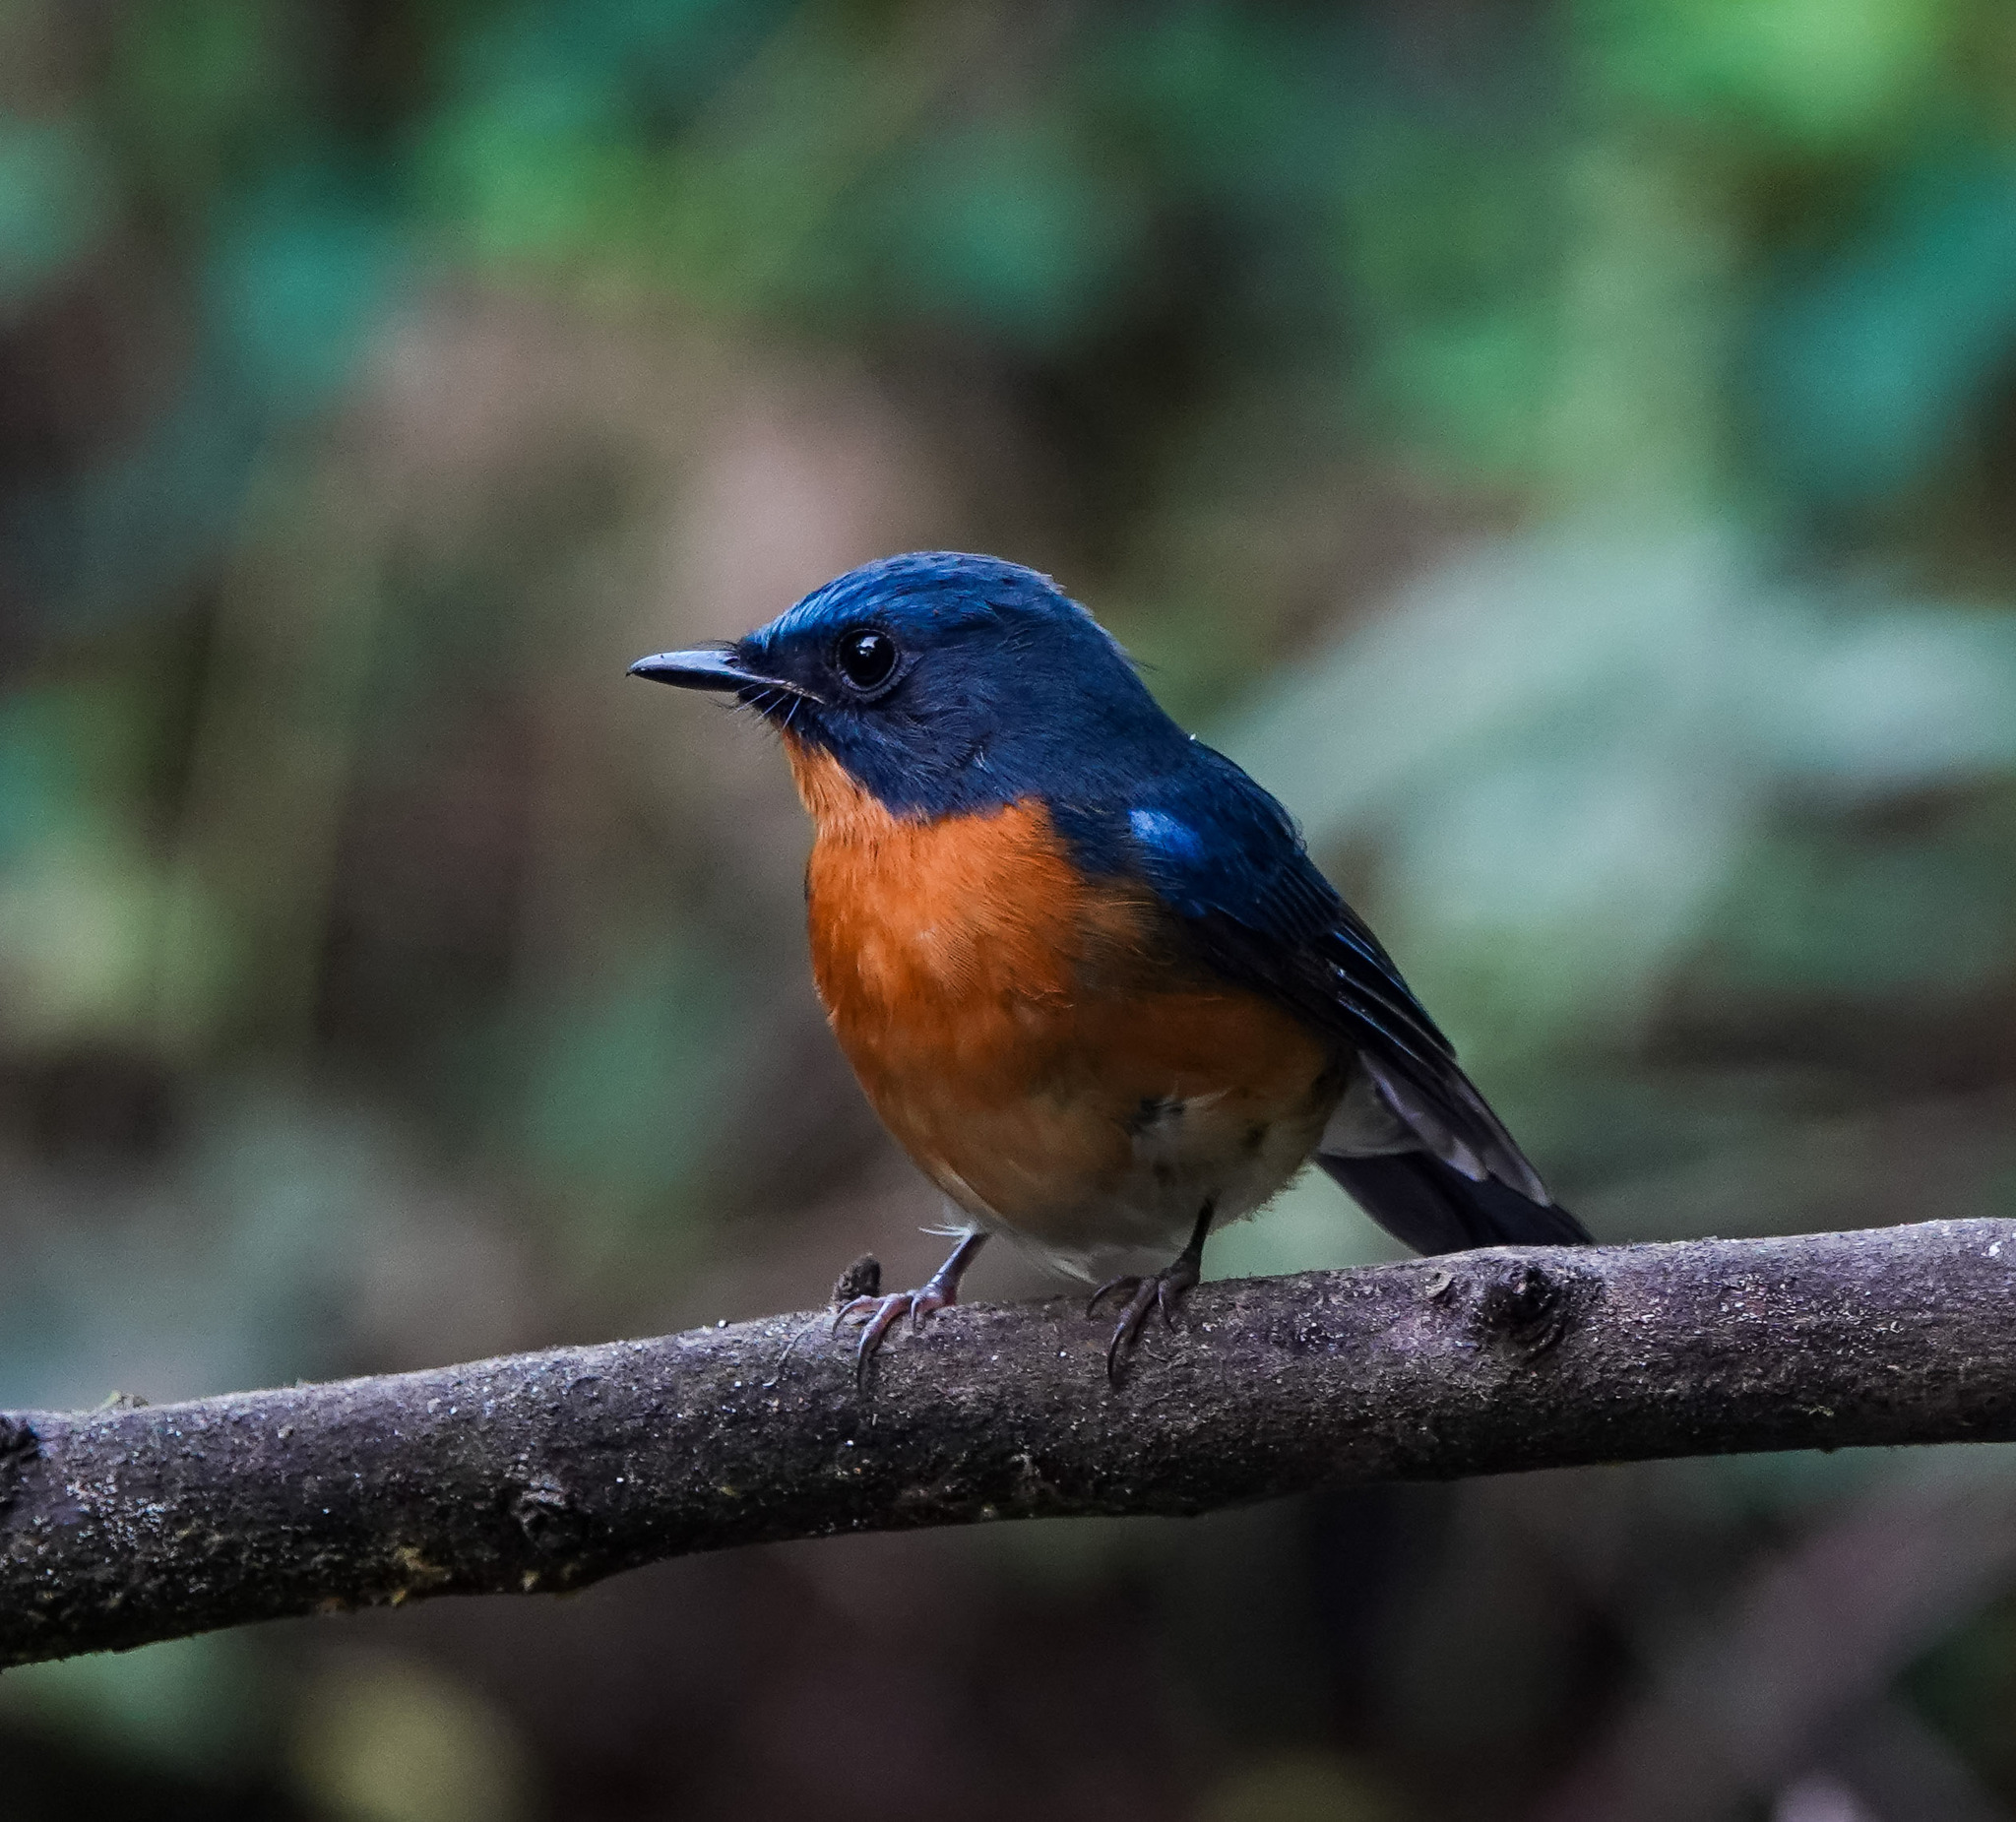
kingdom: Animalia
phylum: Chordata
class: Aves
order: Passeriformes
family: Muscicapidae
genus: Cyornis
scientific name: Cyornis whitei
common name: Hill blue flycatcher
